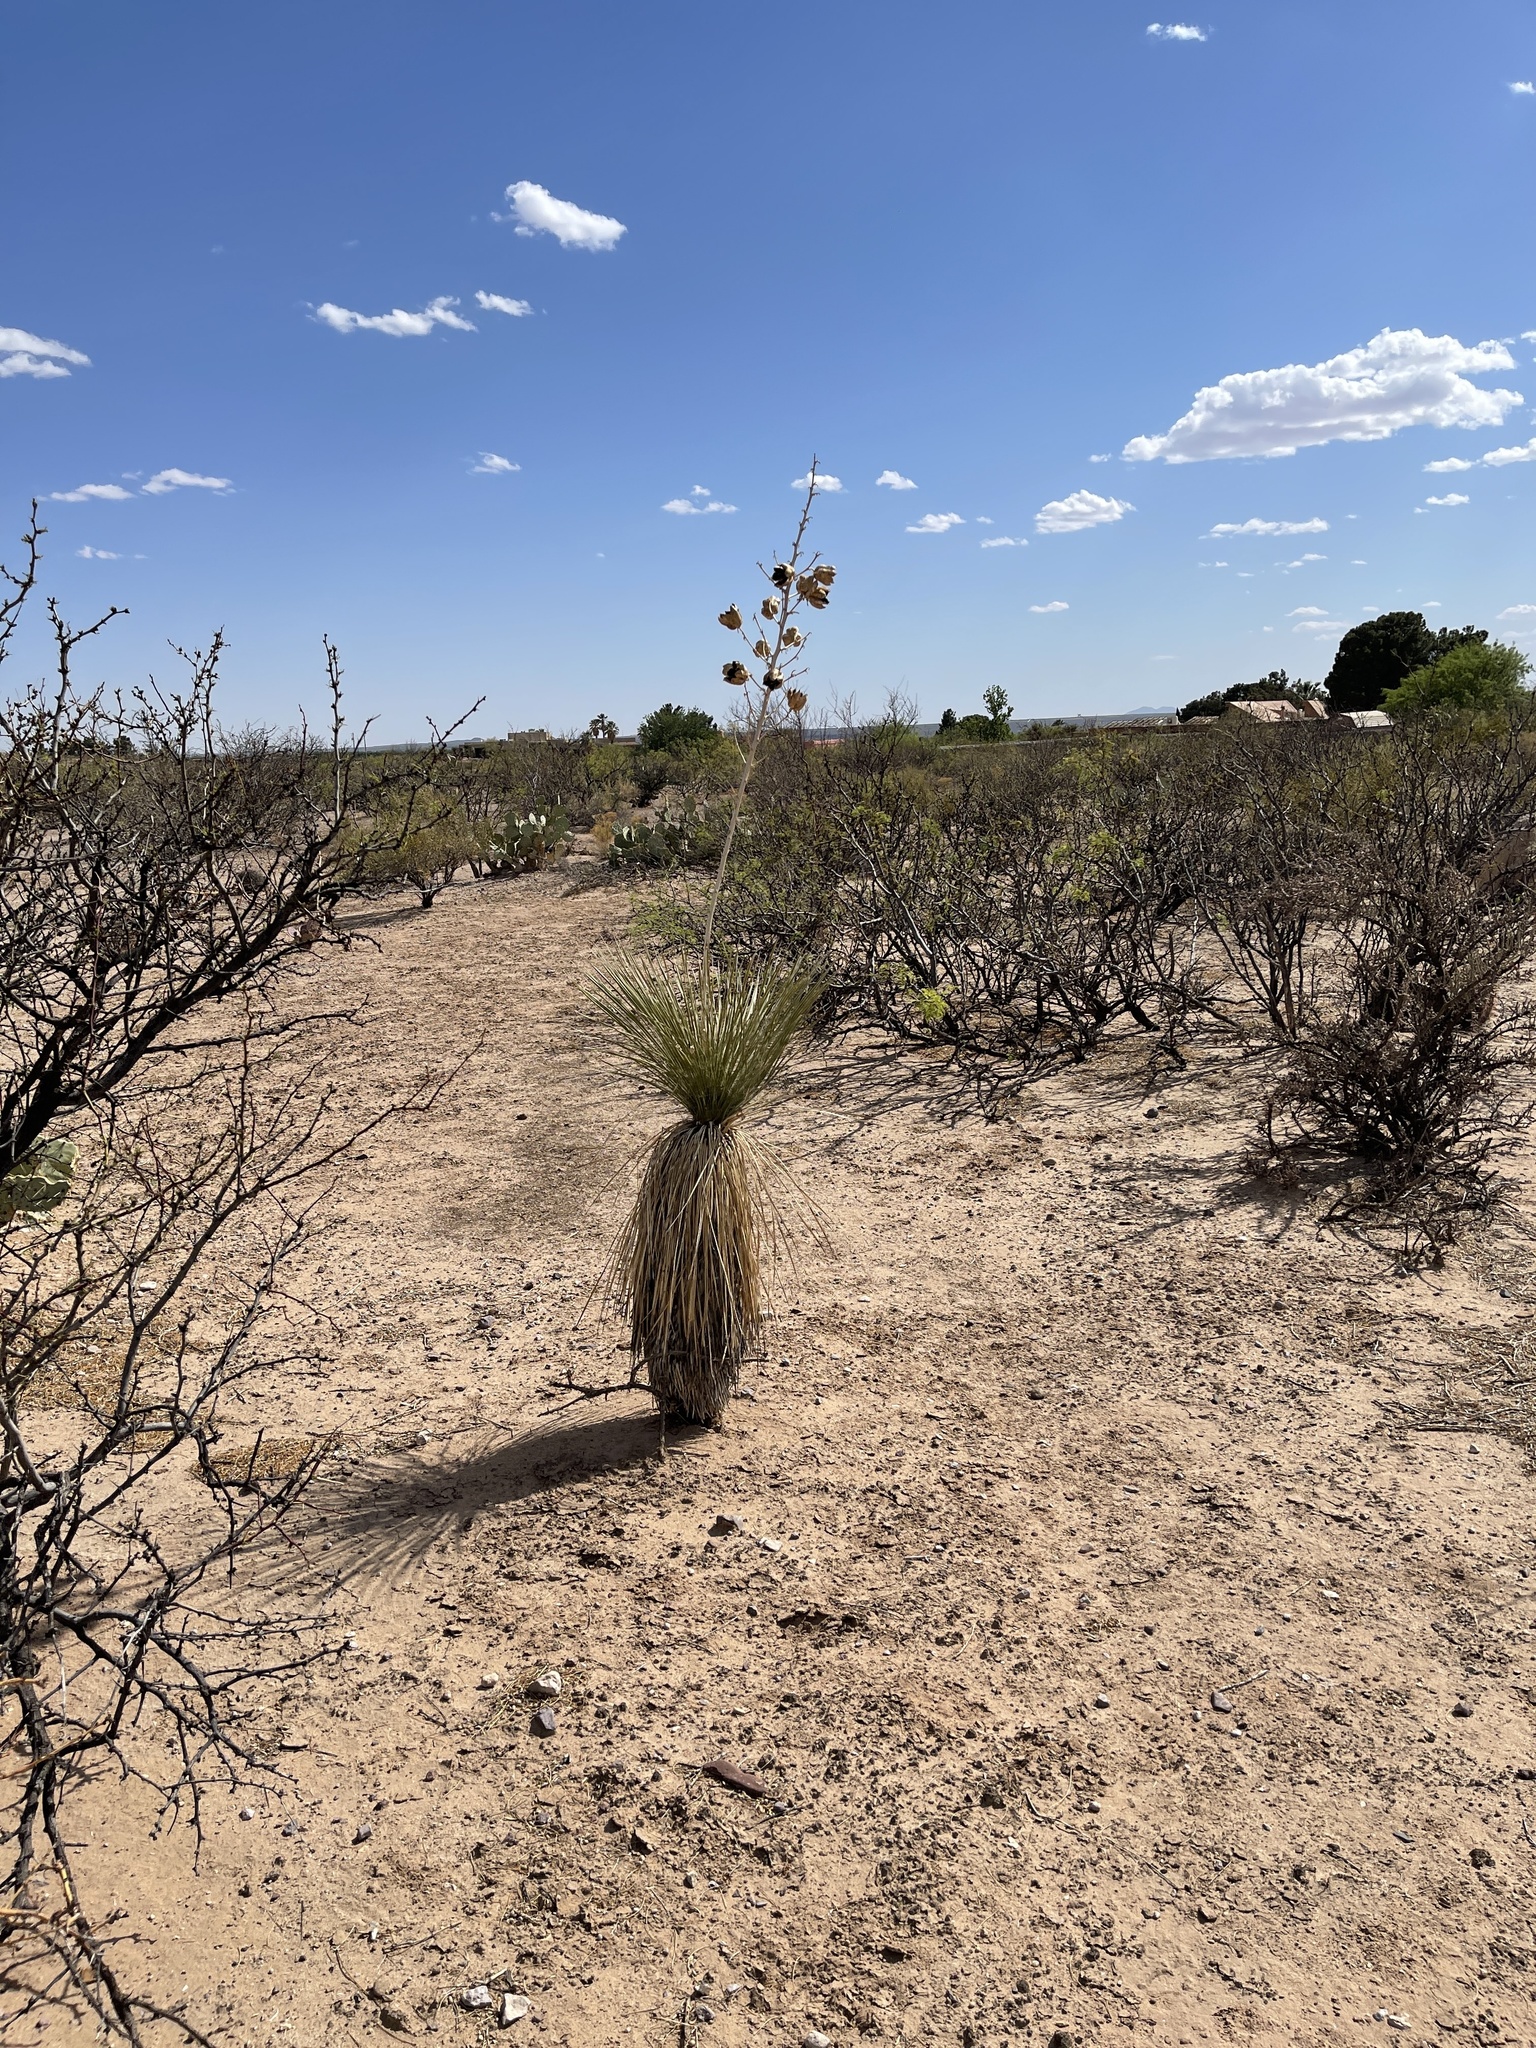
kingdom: Plantae
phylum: Tracheophyta
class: Liliopsida
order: Asparagales
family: Asparagaceae
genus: Yucca
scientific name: Yucca elata
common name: Palmella
